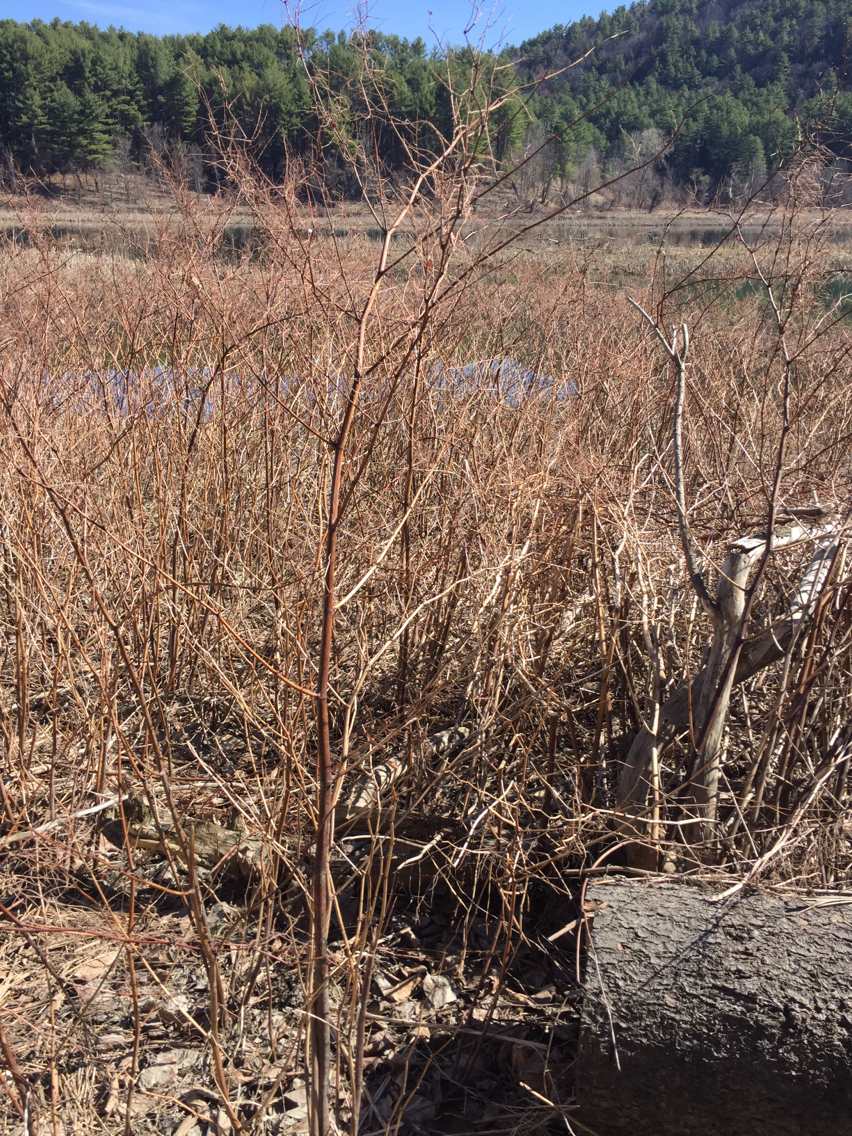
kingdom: Plantae
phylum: Tracheophyta
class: Magnoliopsida
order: Caryophyllales
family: Polygonaceae
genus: Reynoutria
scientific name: Reynoutria japonica
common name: Japanese knotweed
